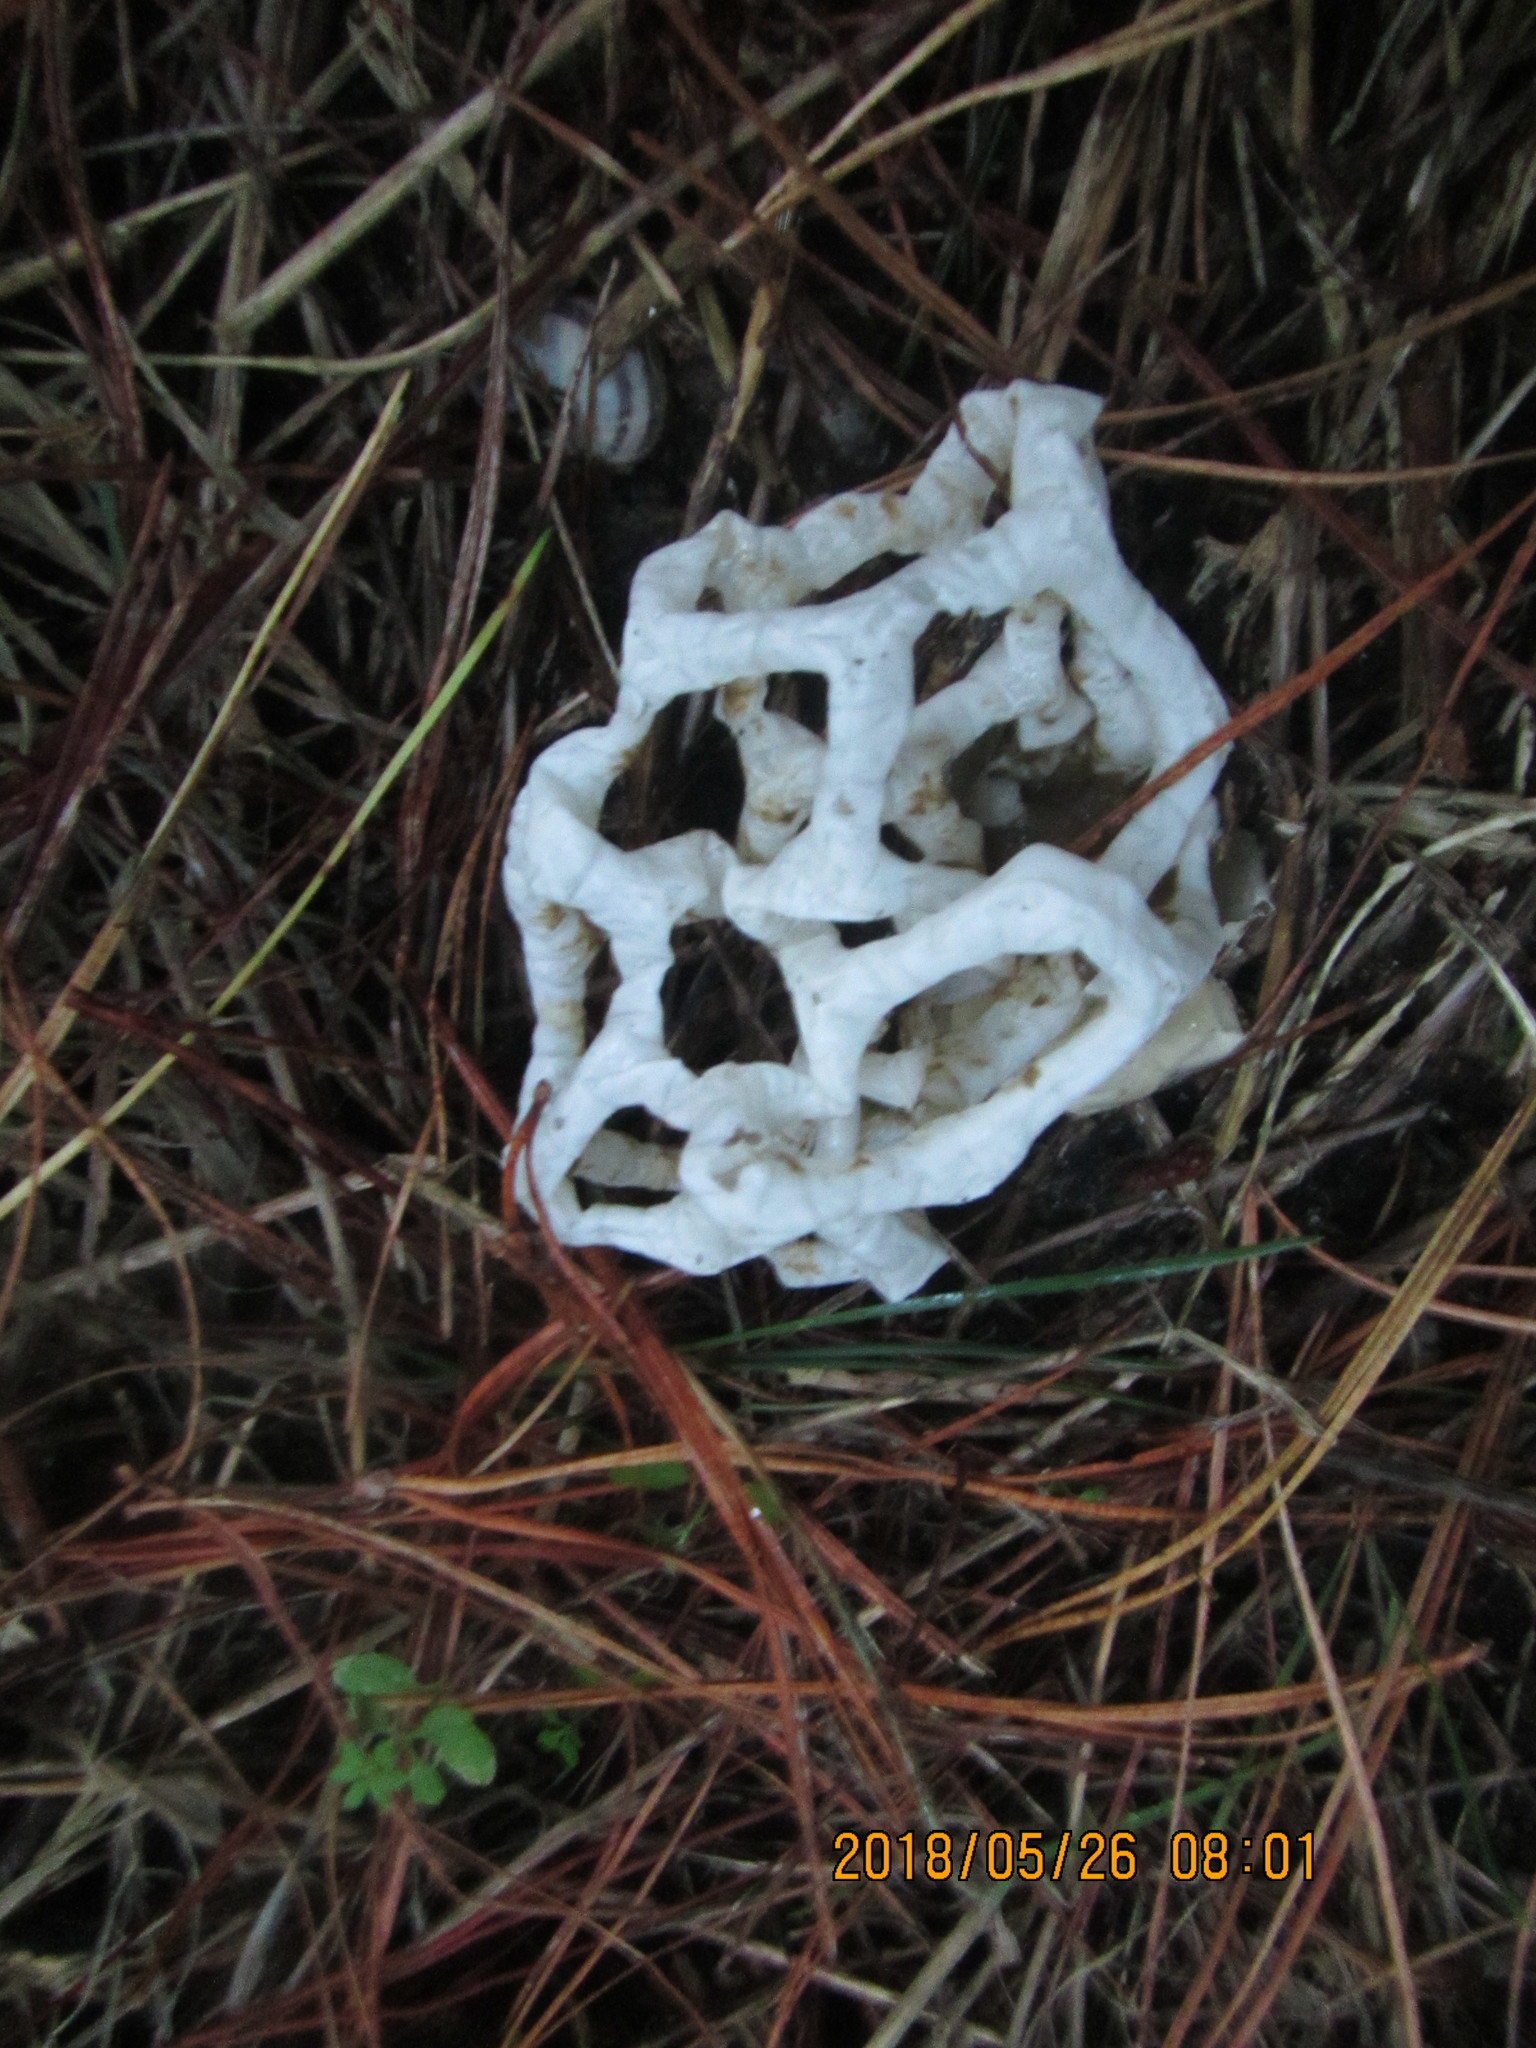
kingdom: Fungi
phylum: Basidiomycota
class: Agaricomycetes
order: Phallales
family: Phallaceae
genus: Ileodictyon
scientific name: Ileodictyon cibarium
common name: Basket fungus
